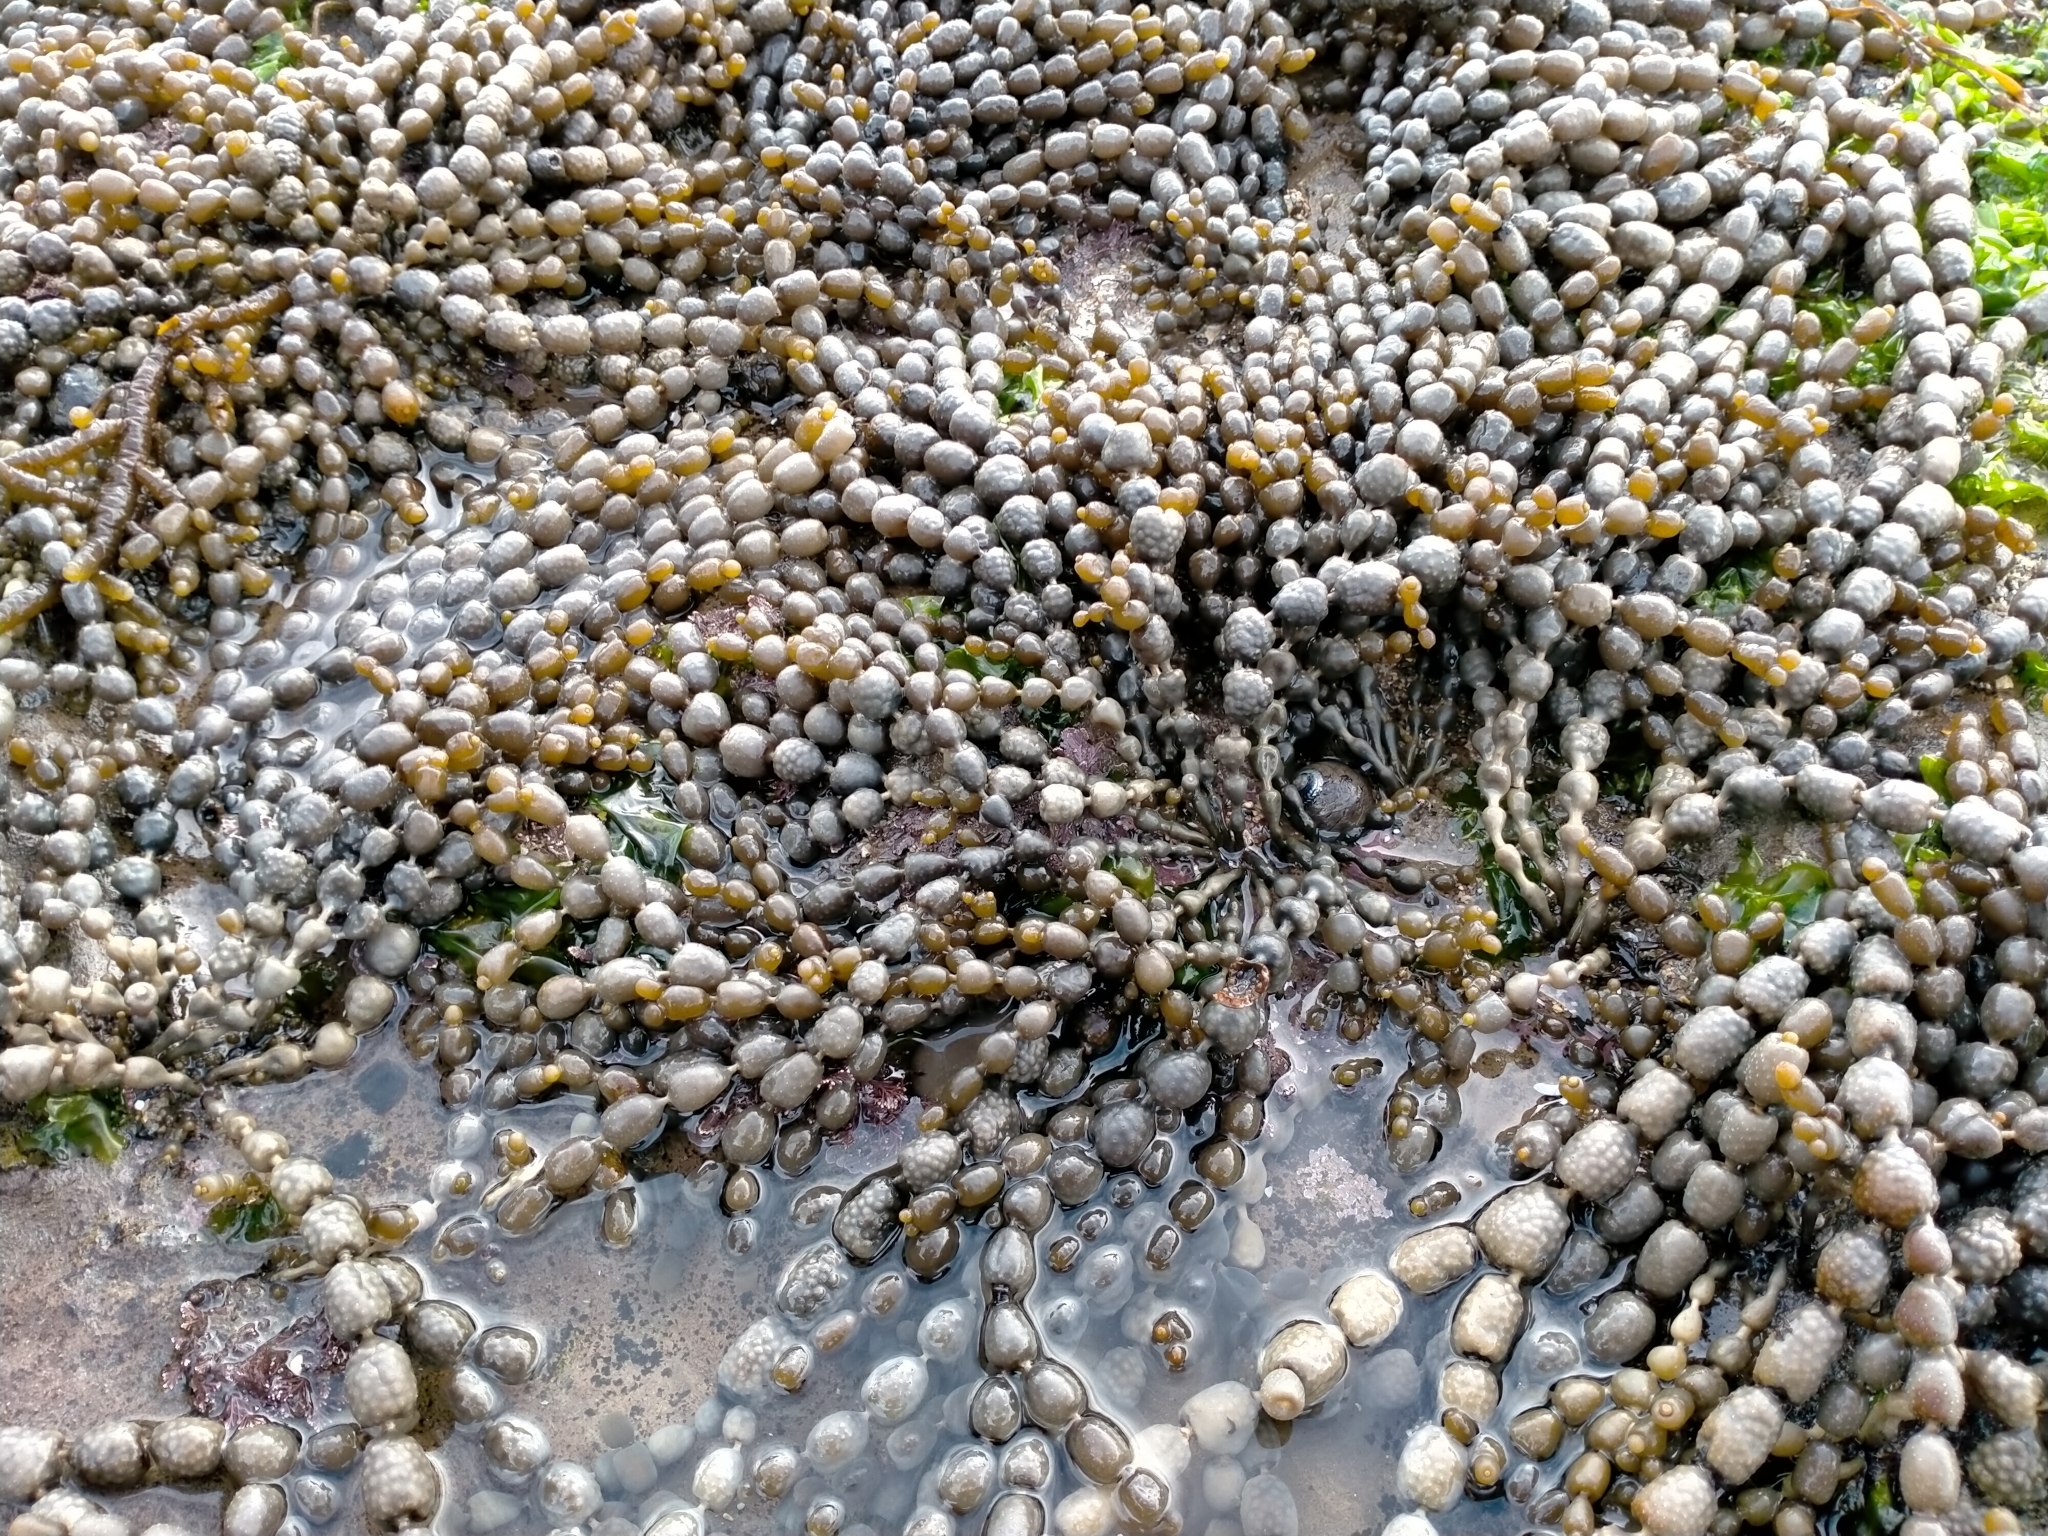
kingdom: Chromista
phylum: Ochrophyta
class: Phaeophyceae
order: Fucales
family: Hormosiraceae
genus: Hormosira
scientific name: Hormosira banksii
